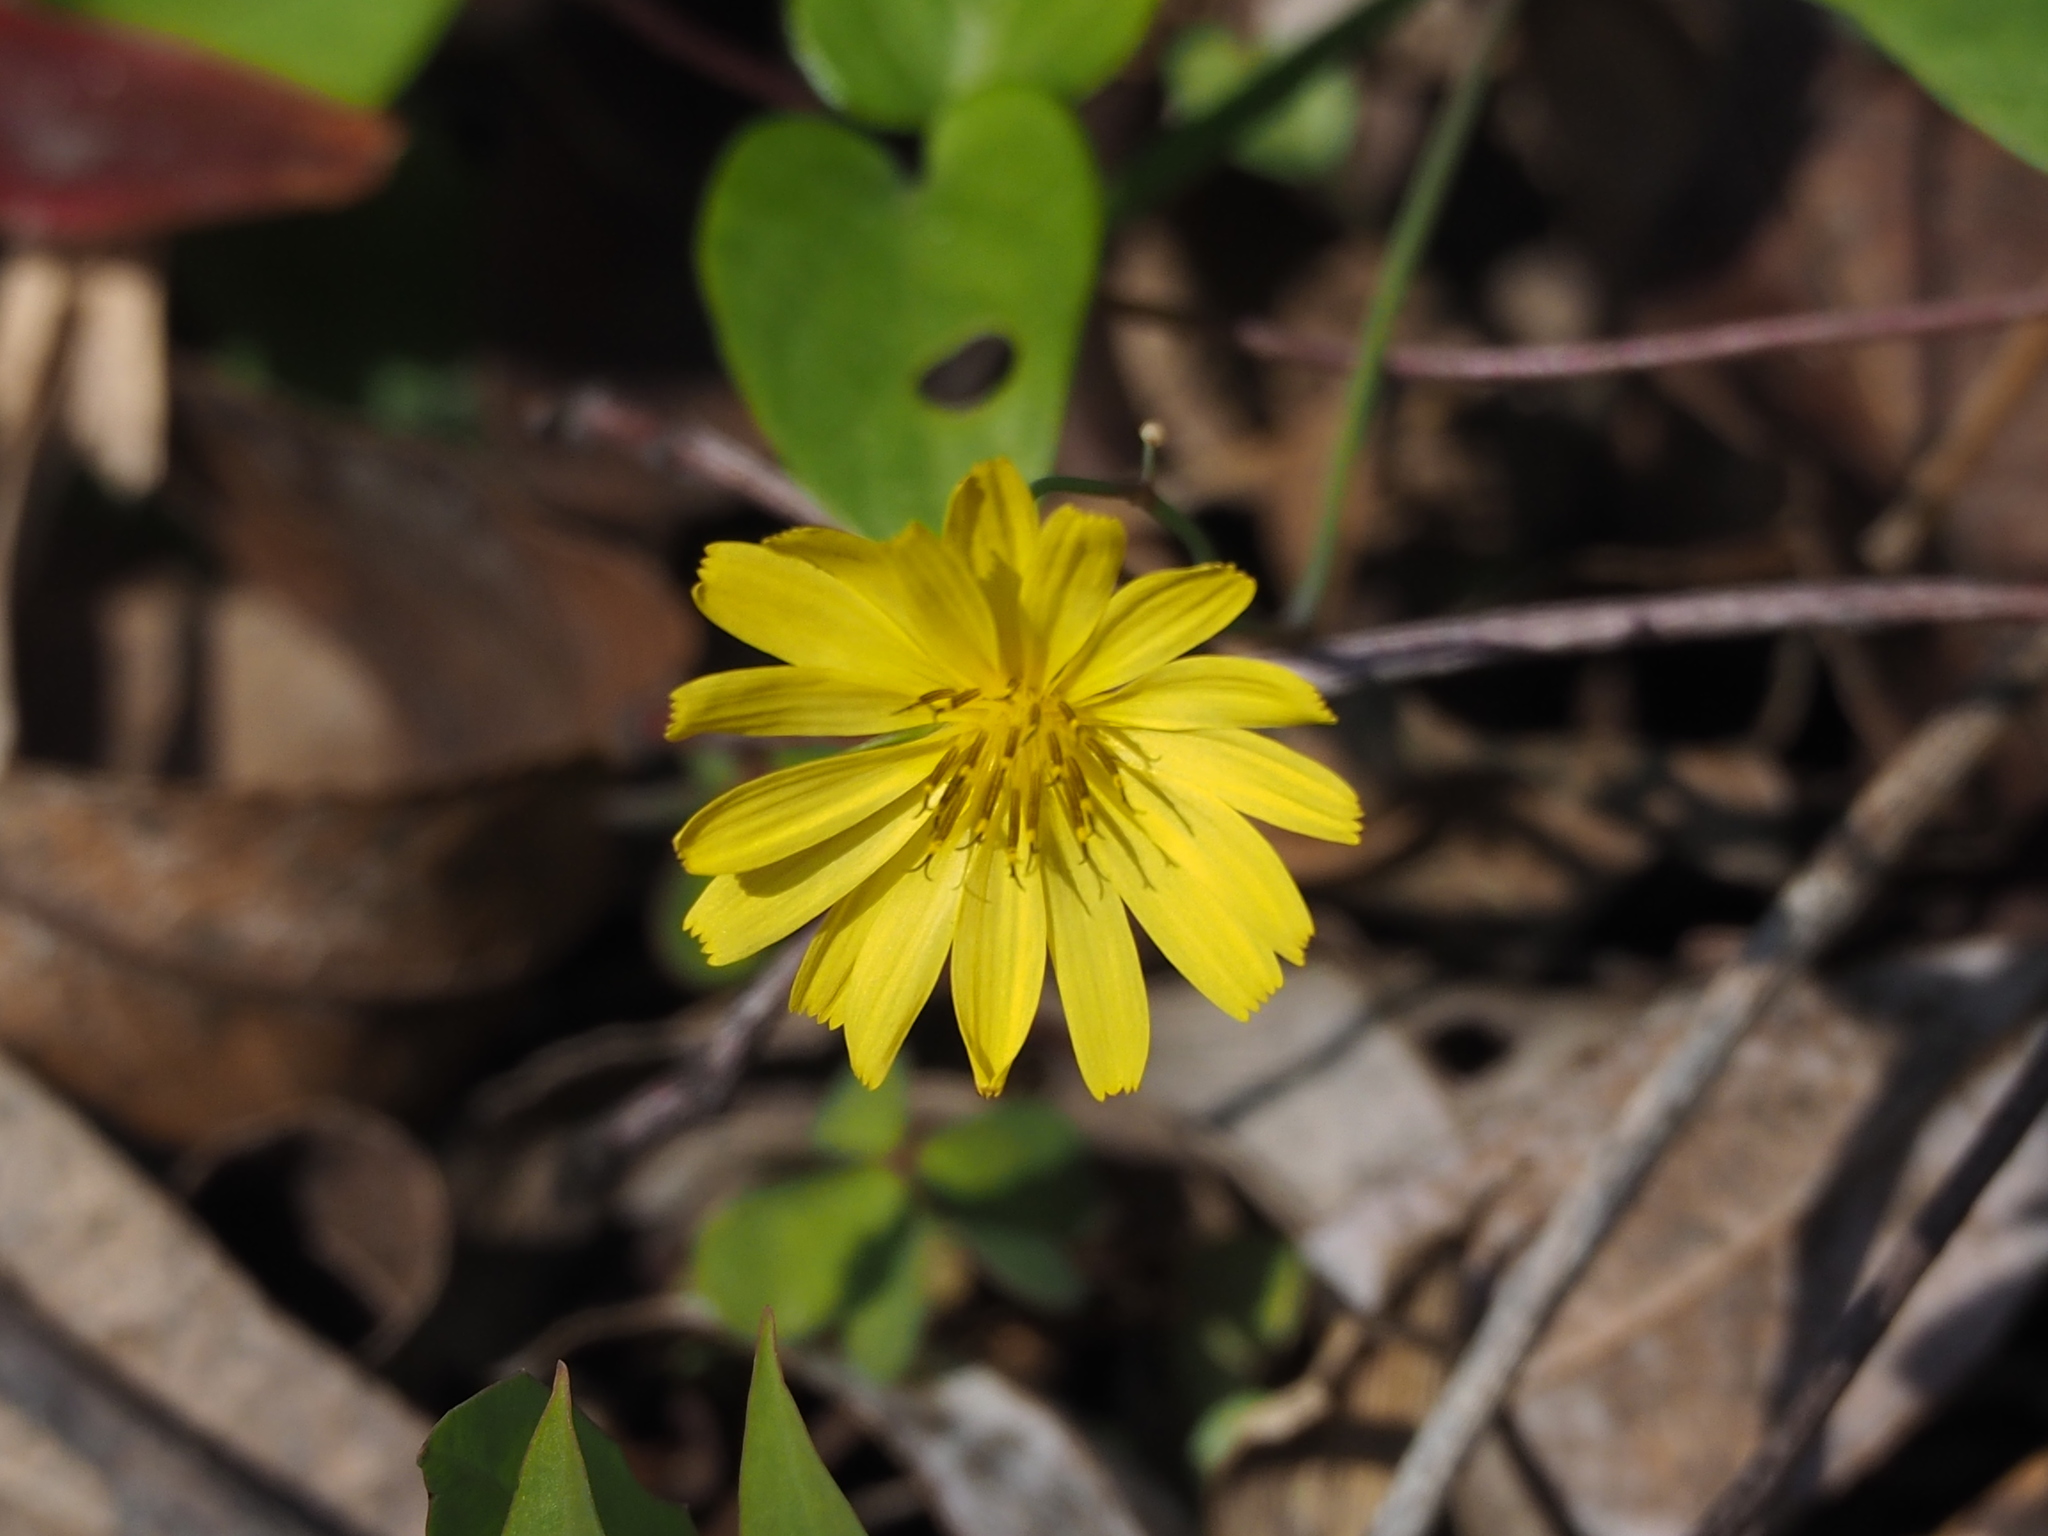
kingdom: Plantae
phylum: Tracheophyta
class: Magnoliopsida
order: Asterales
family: Asteraceae
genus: Ixeris
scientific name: Ixeris chinensis
